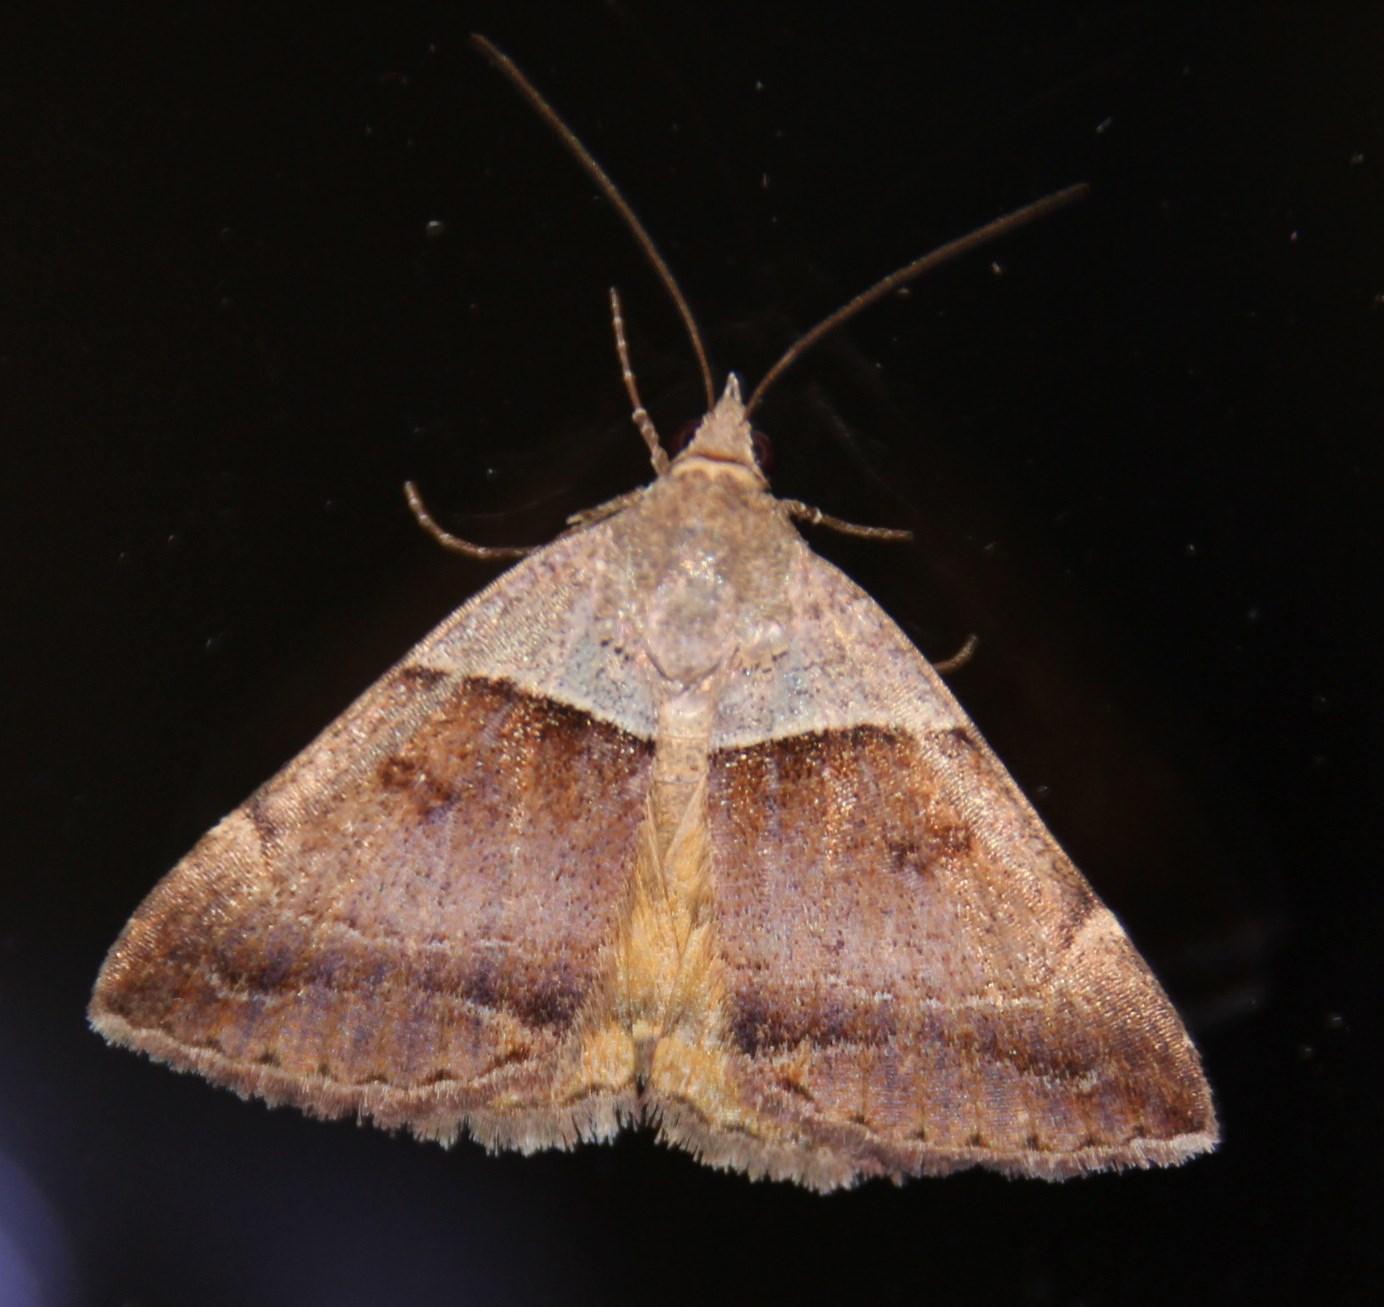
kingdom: Animalia
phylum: Arthropoda
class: Insecta
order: Lepidoptera
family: Erebidae
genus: Plecopterodes
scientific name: Plecopterodes moderata
